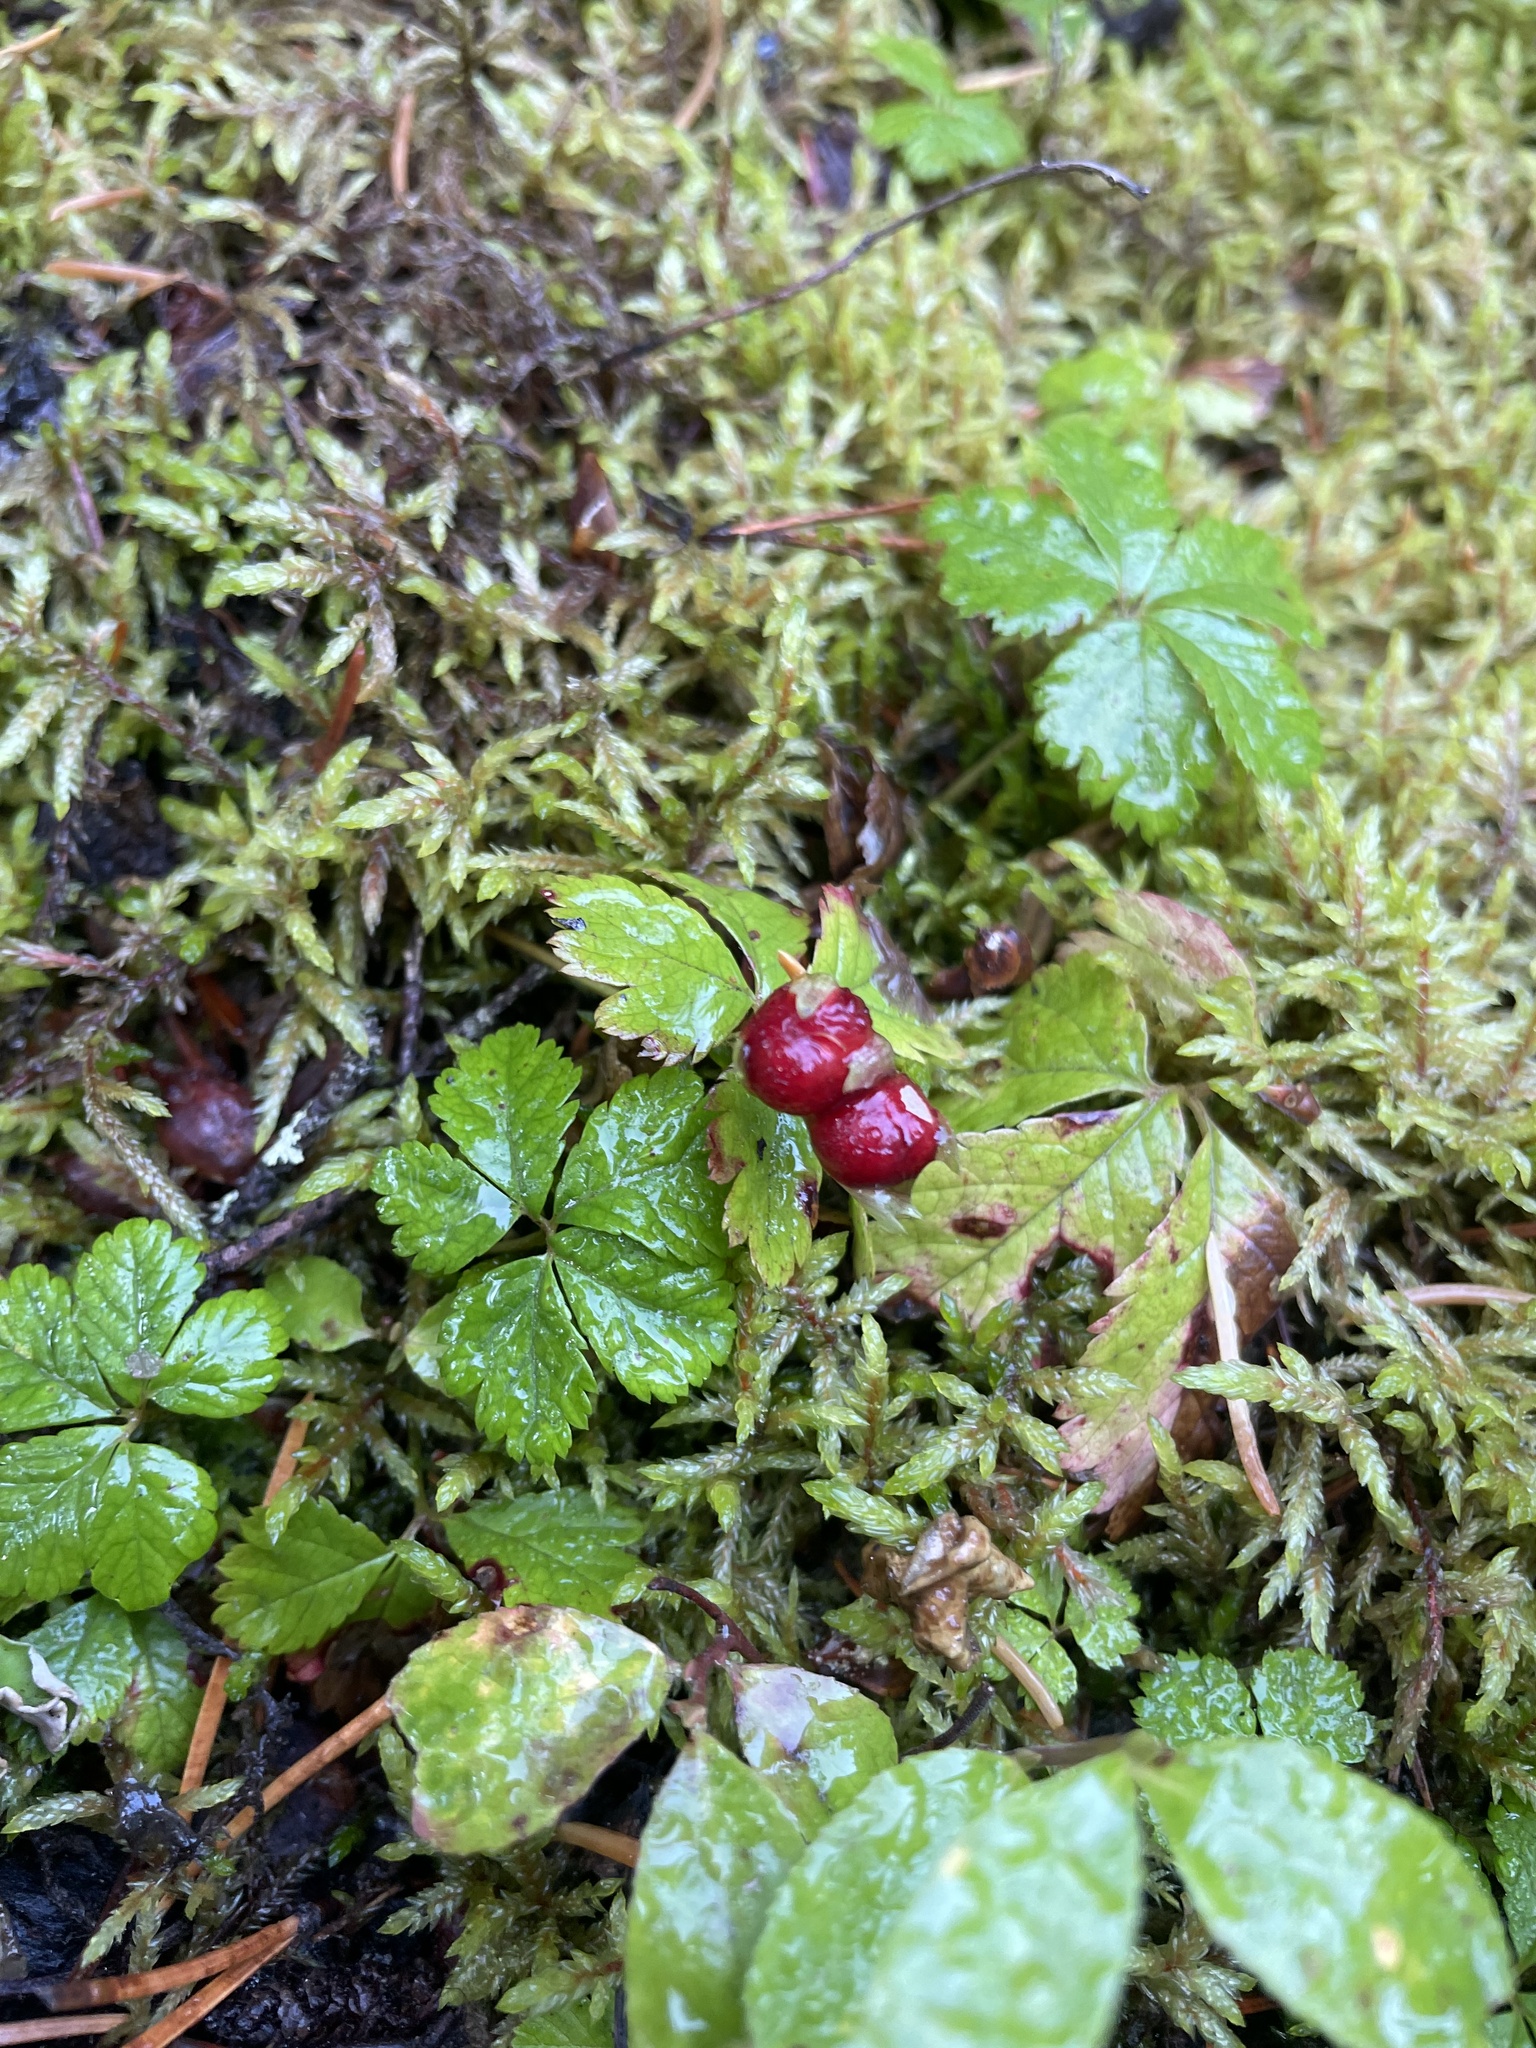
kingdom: Plantae
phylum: Tracheophyta
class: Magnoliopsida
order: Rosales
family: Rosaceae
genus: Rubus
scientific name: Rubus pedatus
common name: Creeping raspberry
